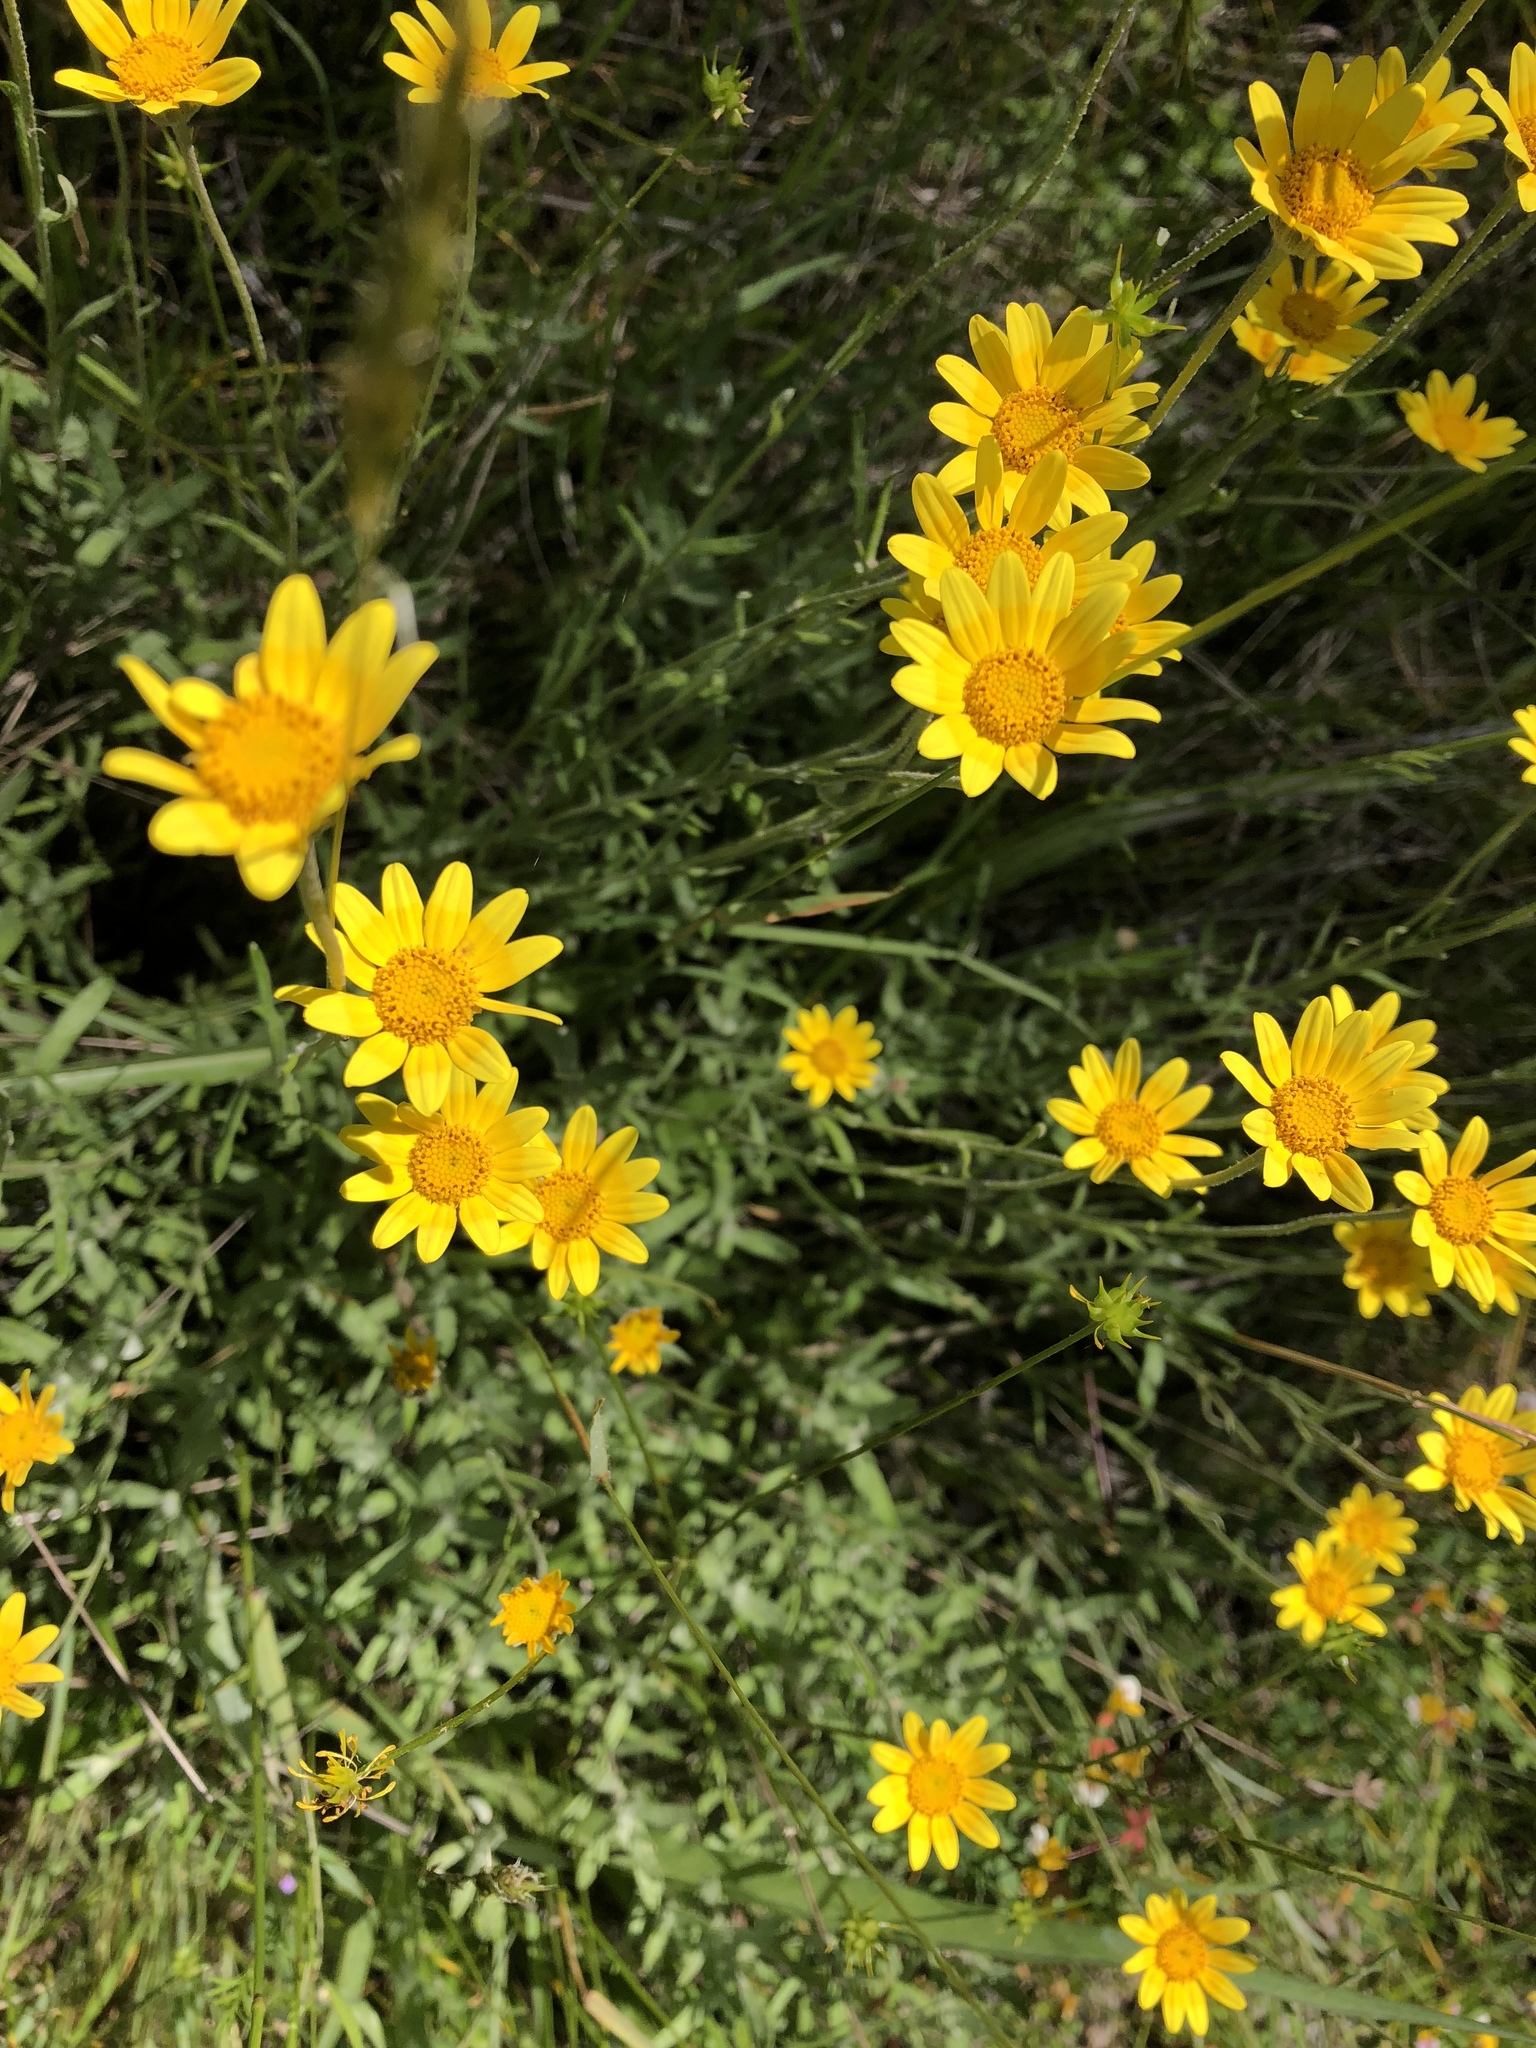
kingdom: Plantae
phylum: Tracheophyta
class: Magnoliopsida
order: Asterales
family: Asteraceae
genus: Eriophyllum
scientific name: Eriophyllum lanatum
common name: Common woolly-sunflower
